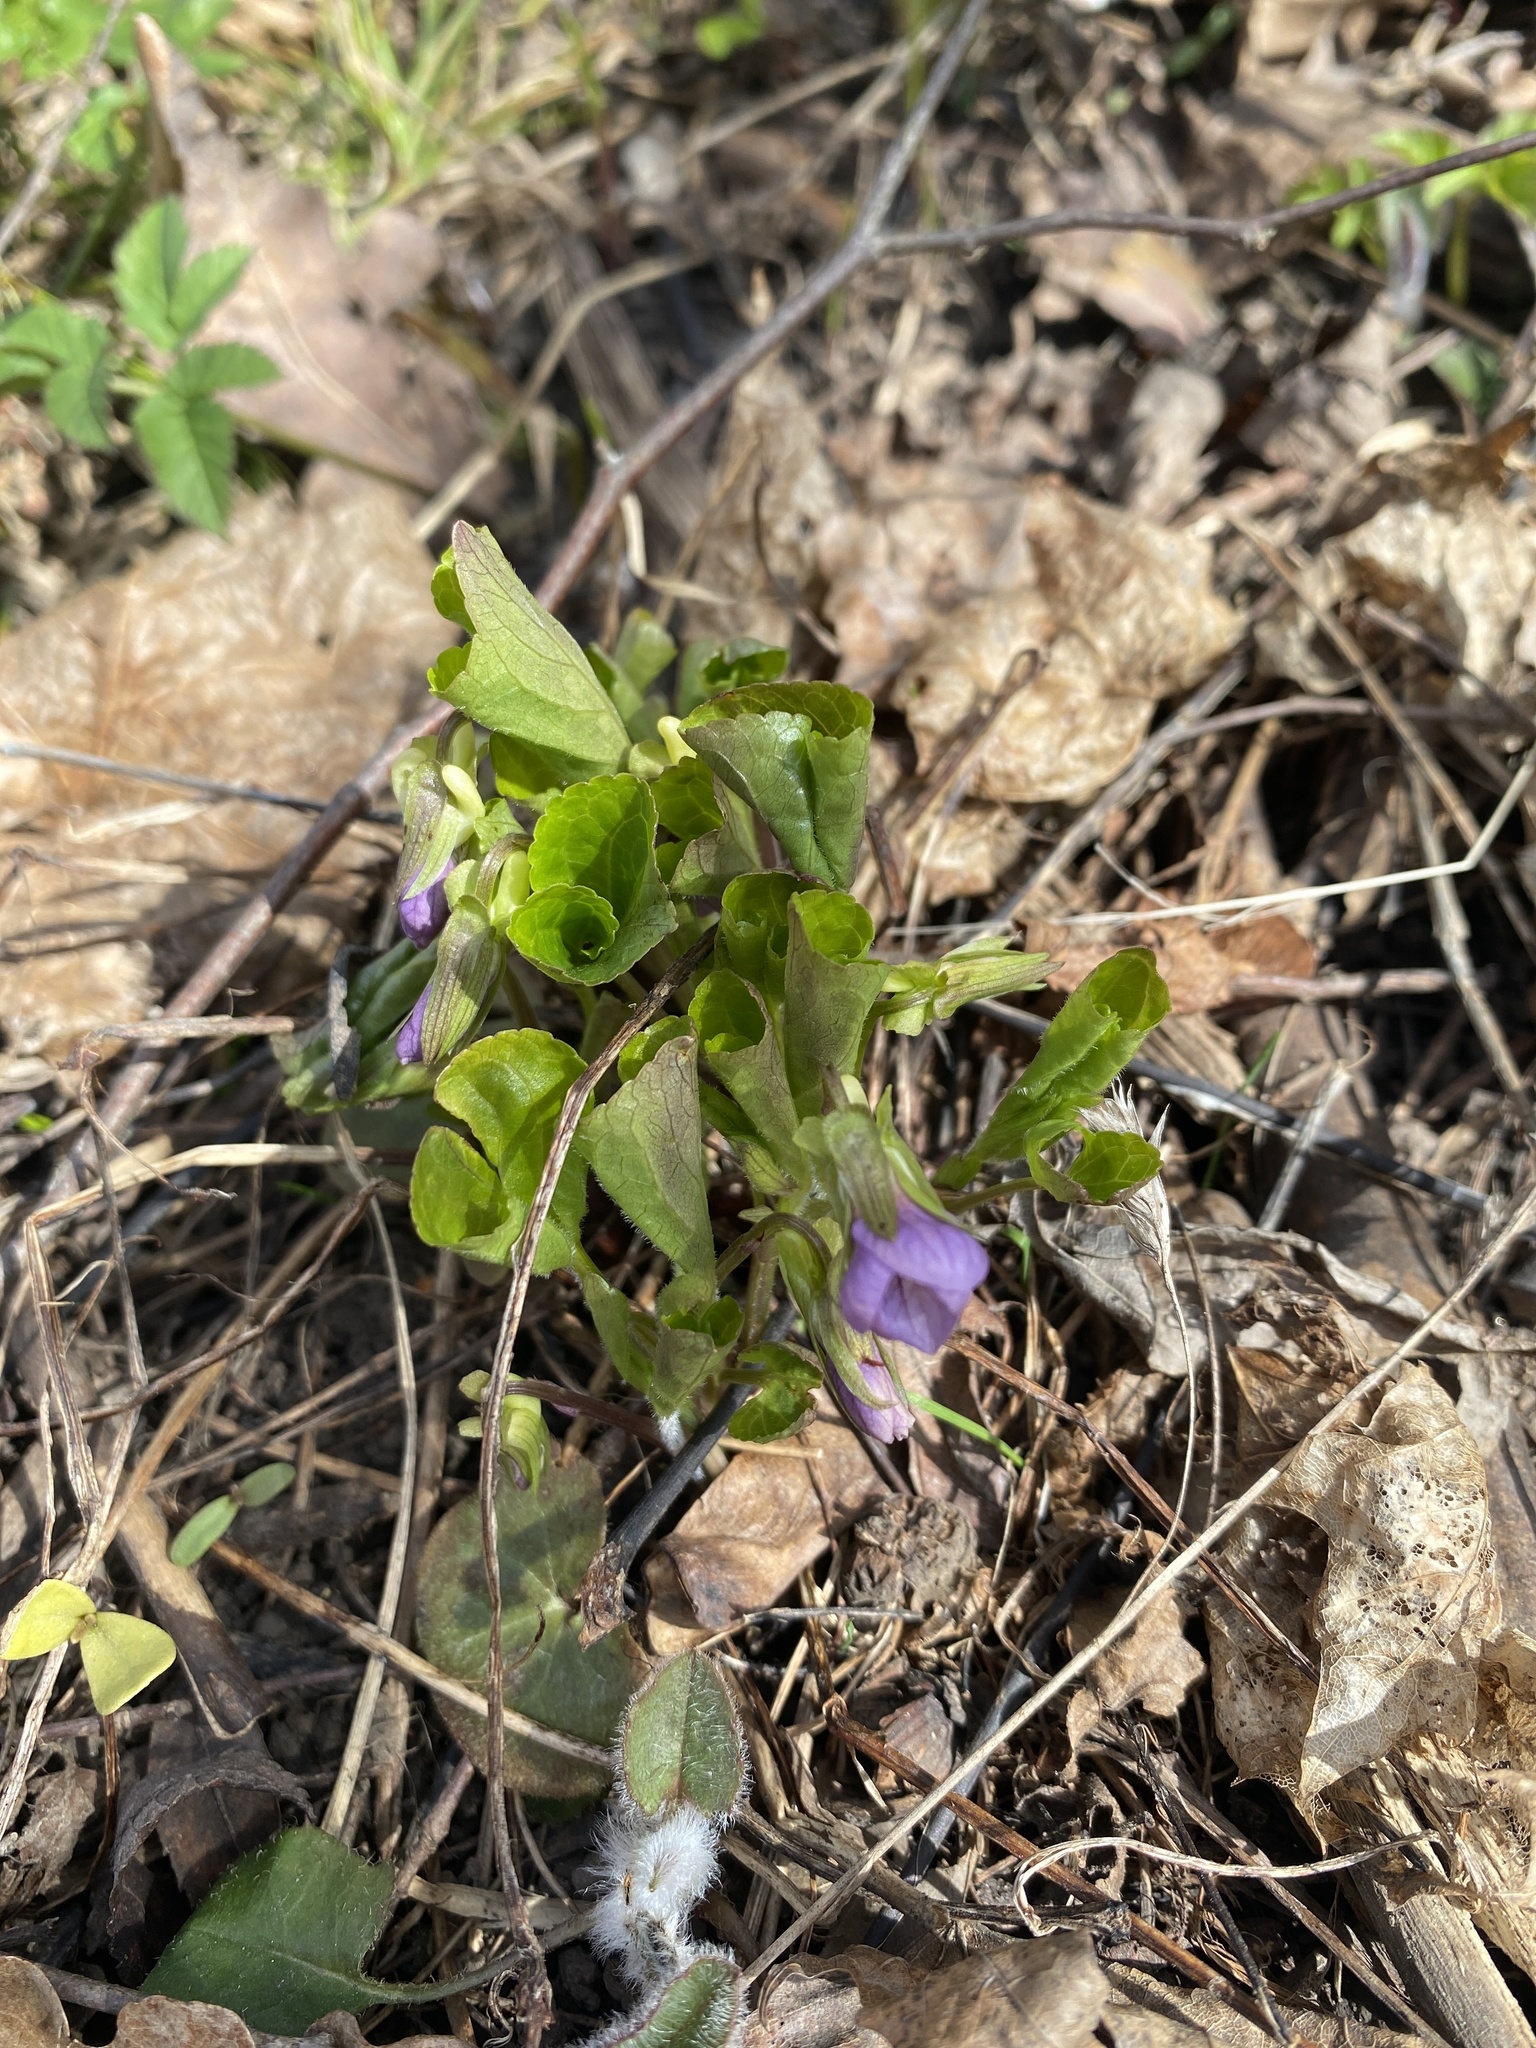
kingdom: Plantae
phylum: Tracheophyta
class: Magnoliopsida
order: Malpighiales
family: Violaceae
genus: Viola
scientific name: Viola mirabilis
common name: Wonder violet
